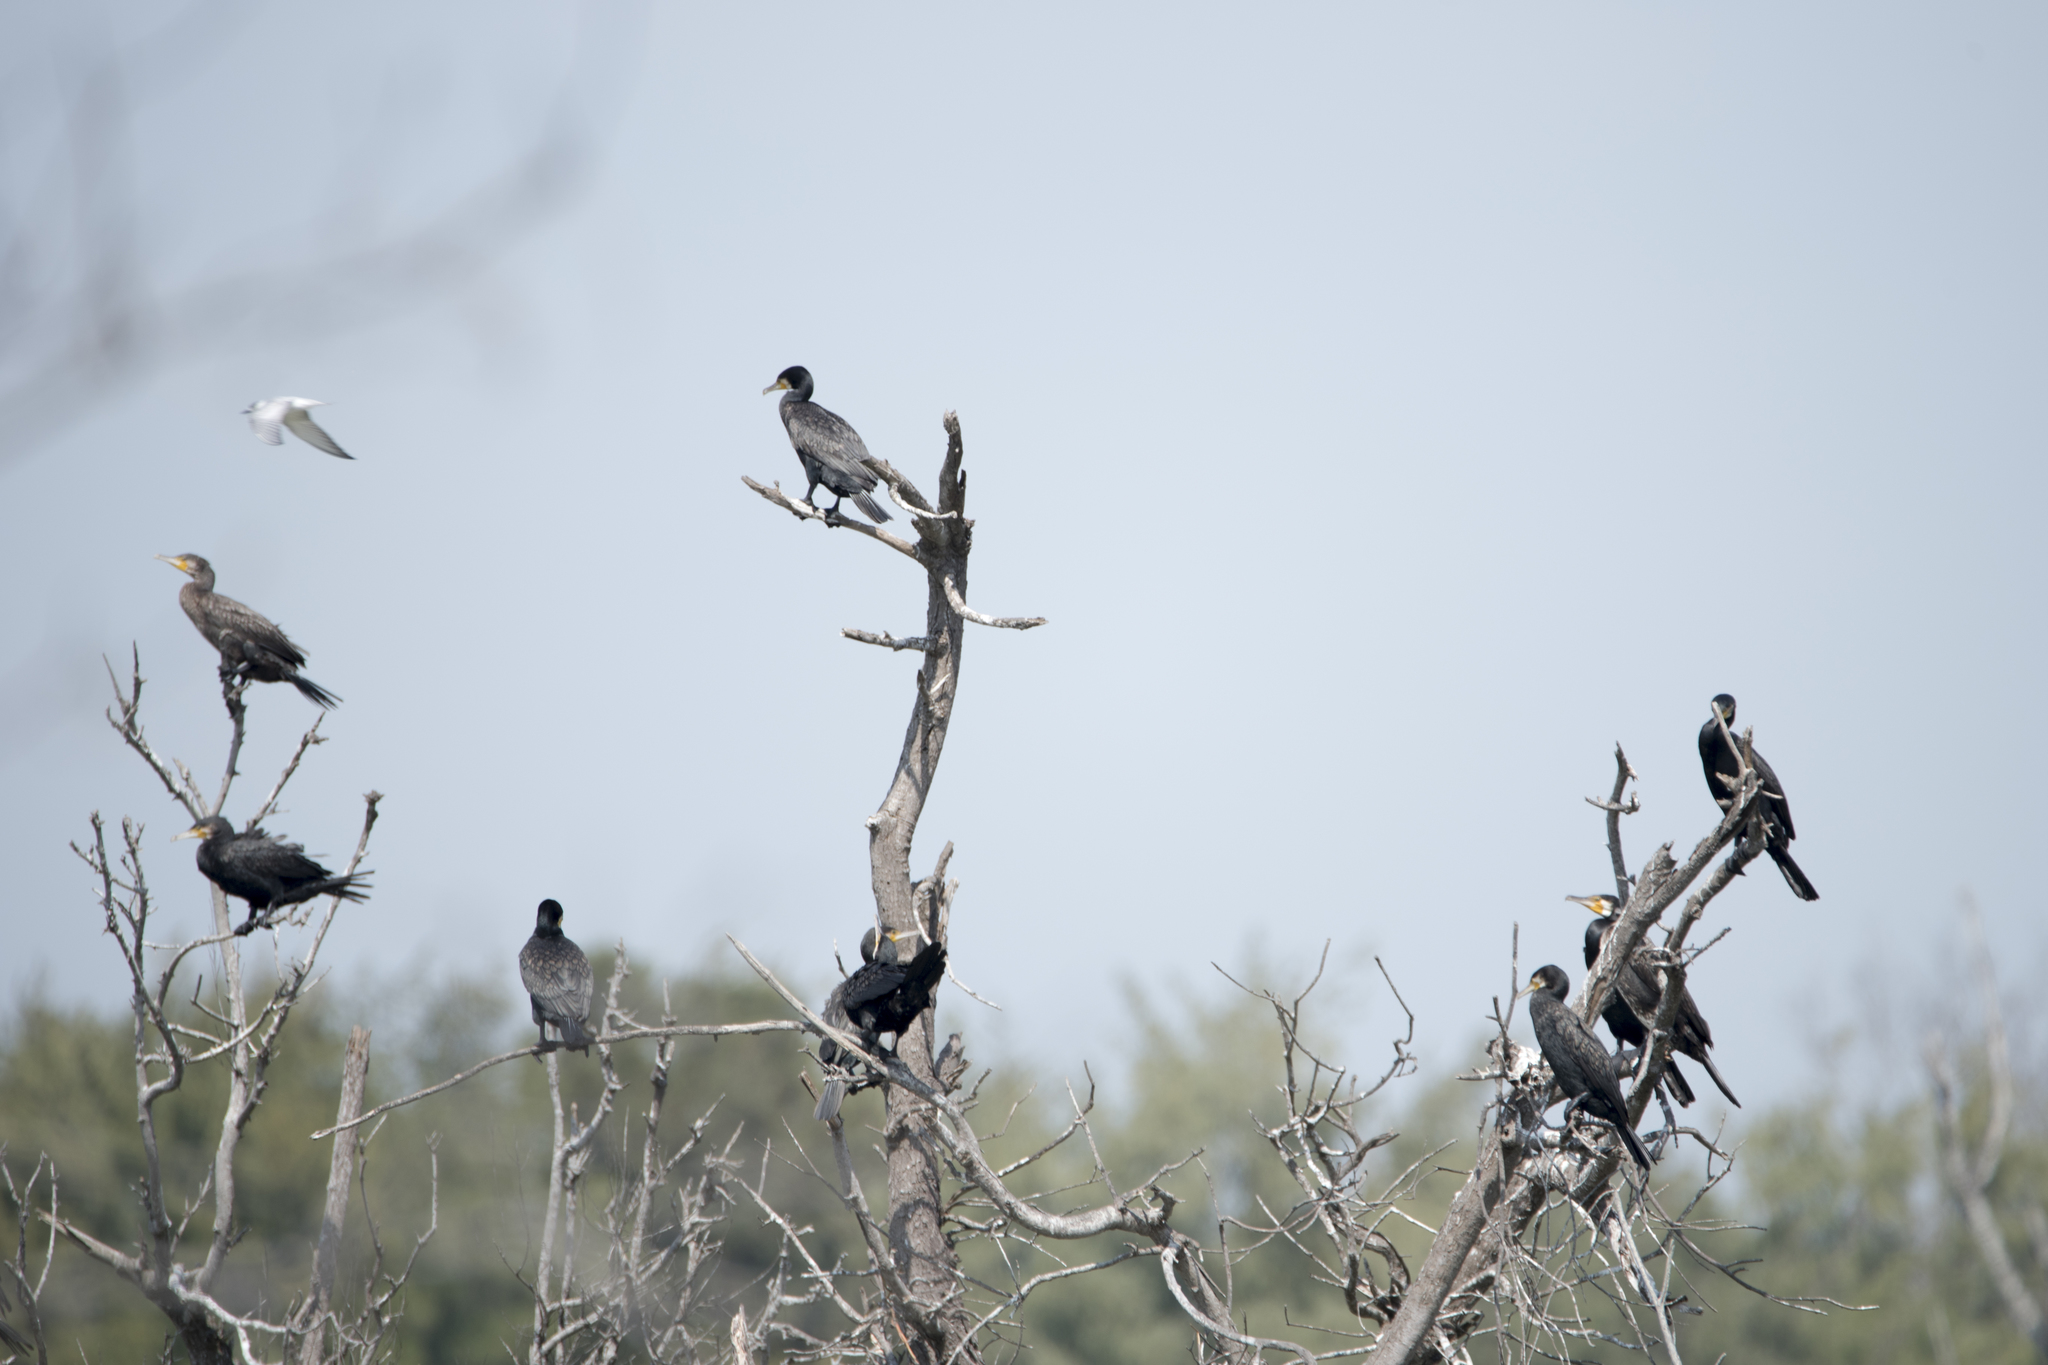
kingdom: Animalia
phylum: Chordata
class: Aves
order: Suliformes
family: Phalacrocoracidae
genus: Phalacrocorax
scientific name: Phalacrocorax carbo
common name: Great cormorant
